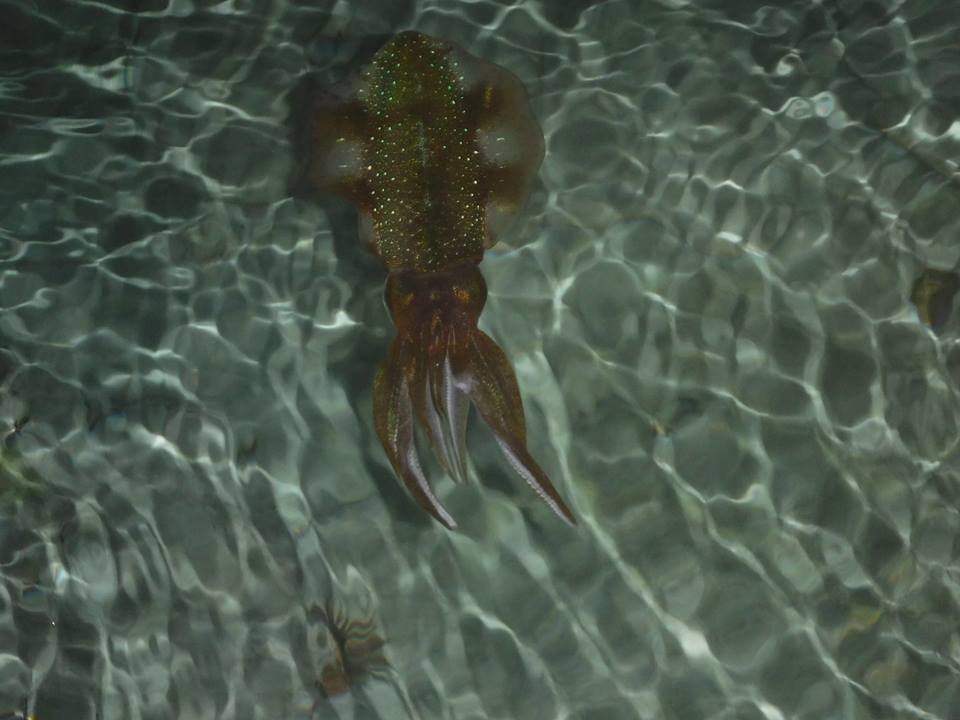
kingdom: Animalia
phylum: Mollusca
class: Cephalopoda
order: Myopsida
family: Loliginidae
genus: Sepioteuthis
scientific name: Sepioteuthis sepioidea
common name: Caribbean reef squid
